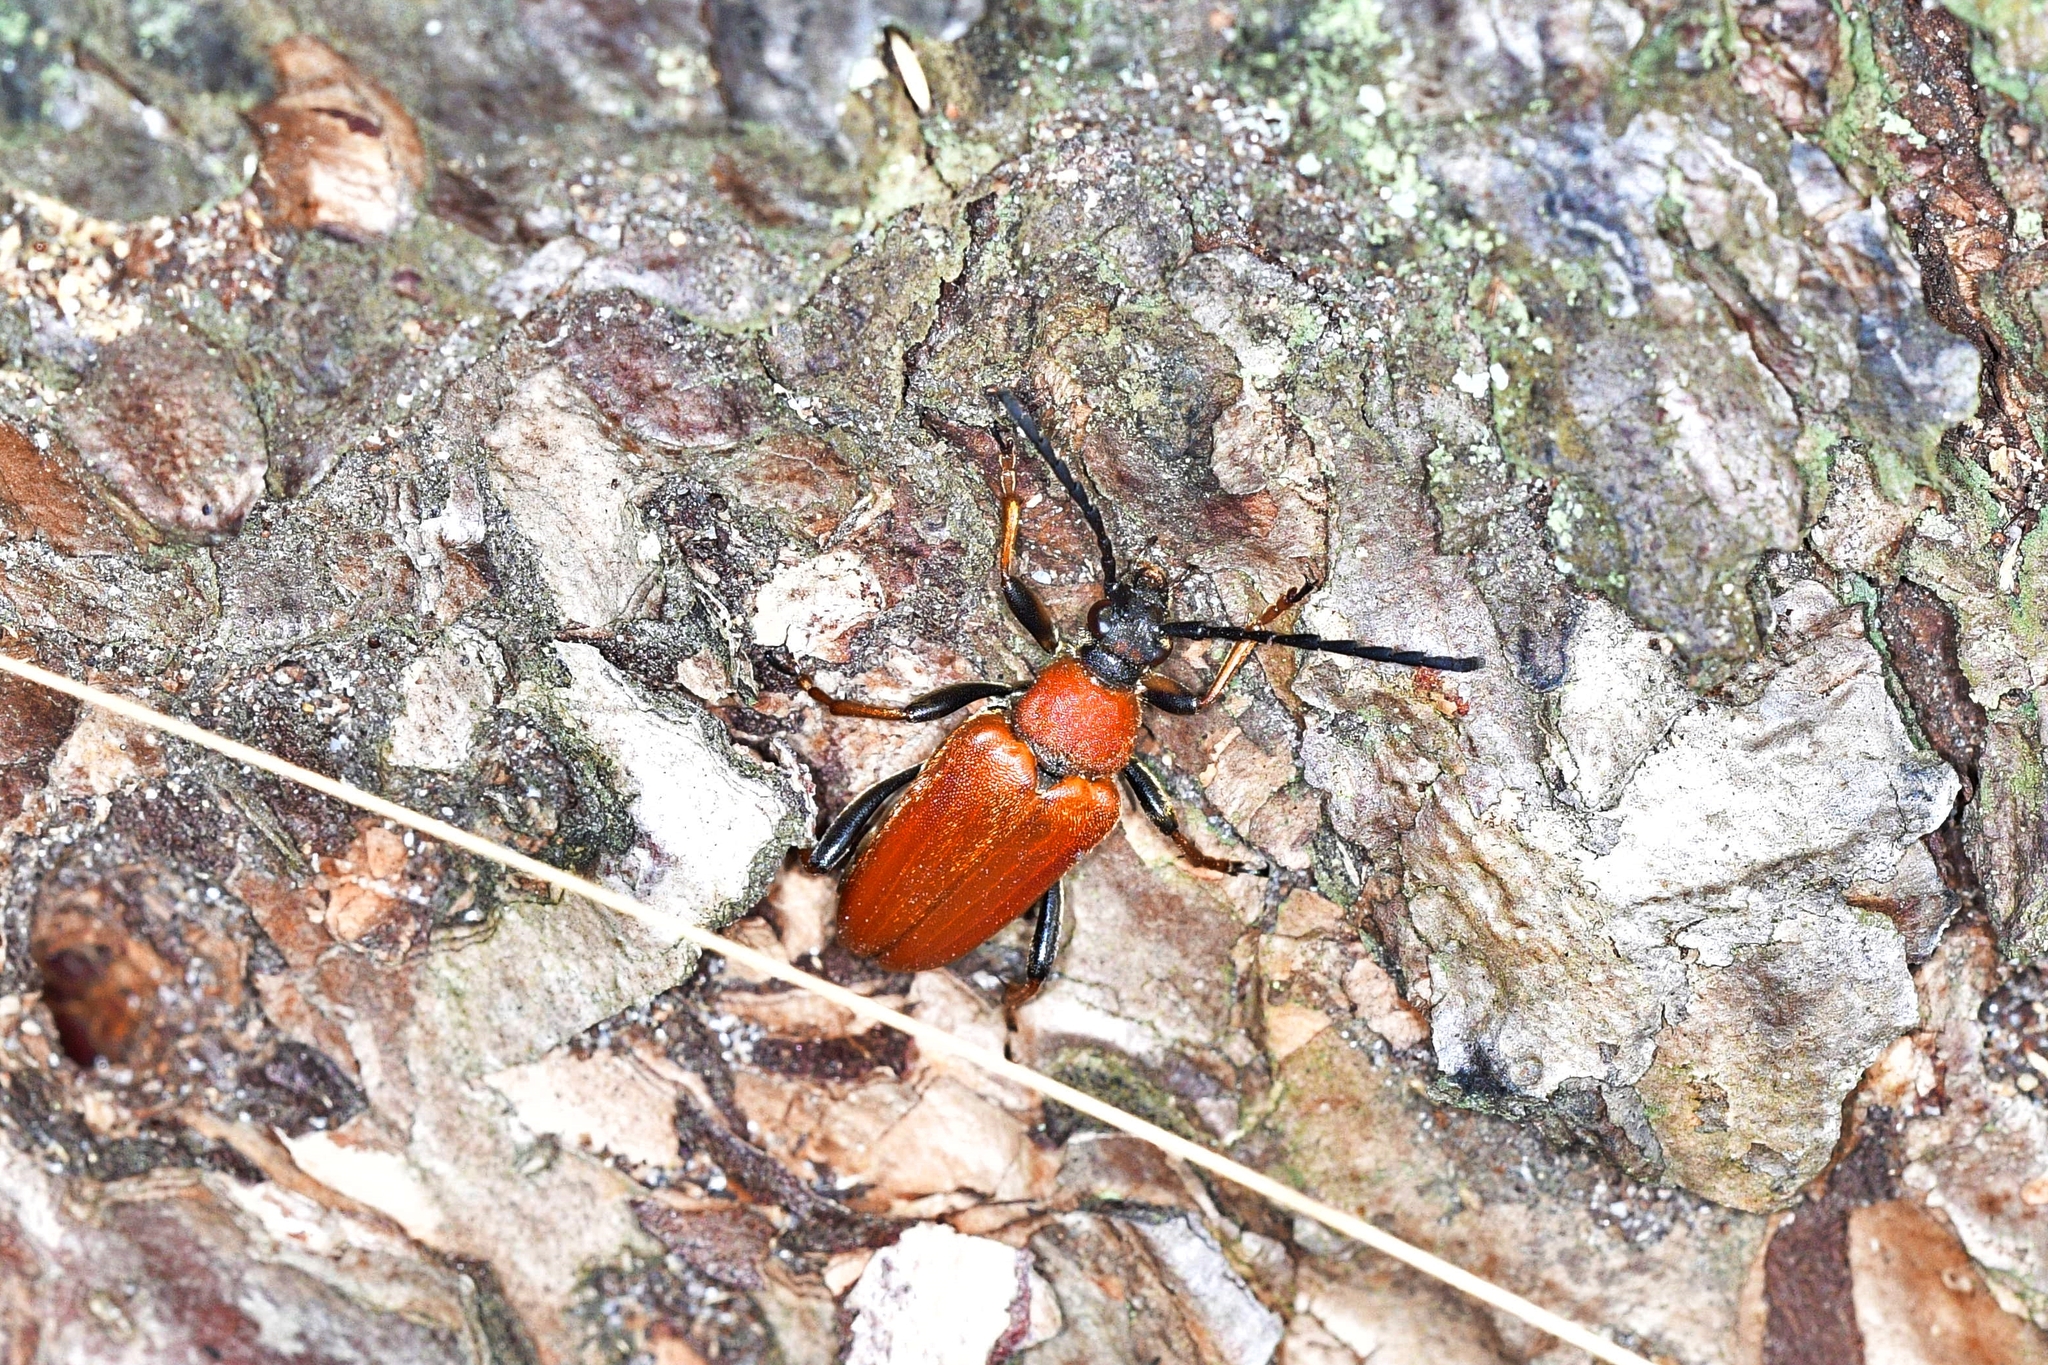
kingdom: Animalia
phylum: Arthropoda
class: Insecta
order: Coleoptera
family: Cerambycidae
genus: Stictoleptura
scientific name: Stictoleptura rubra
